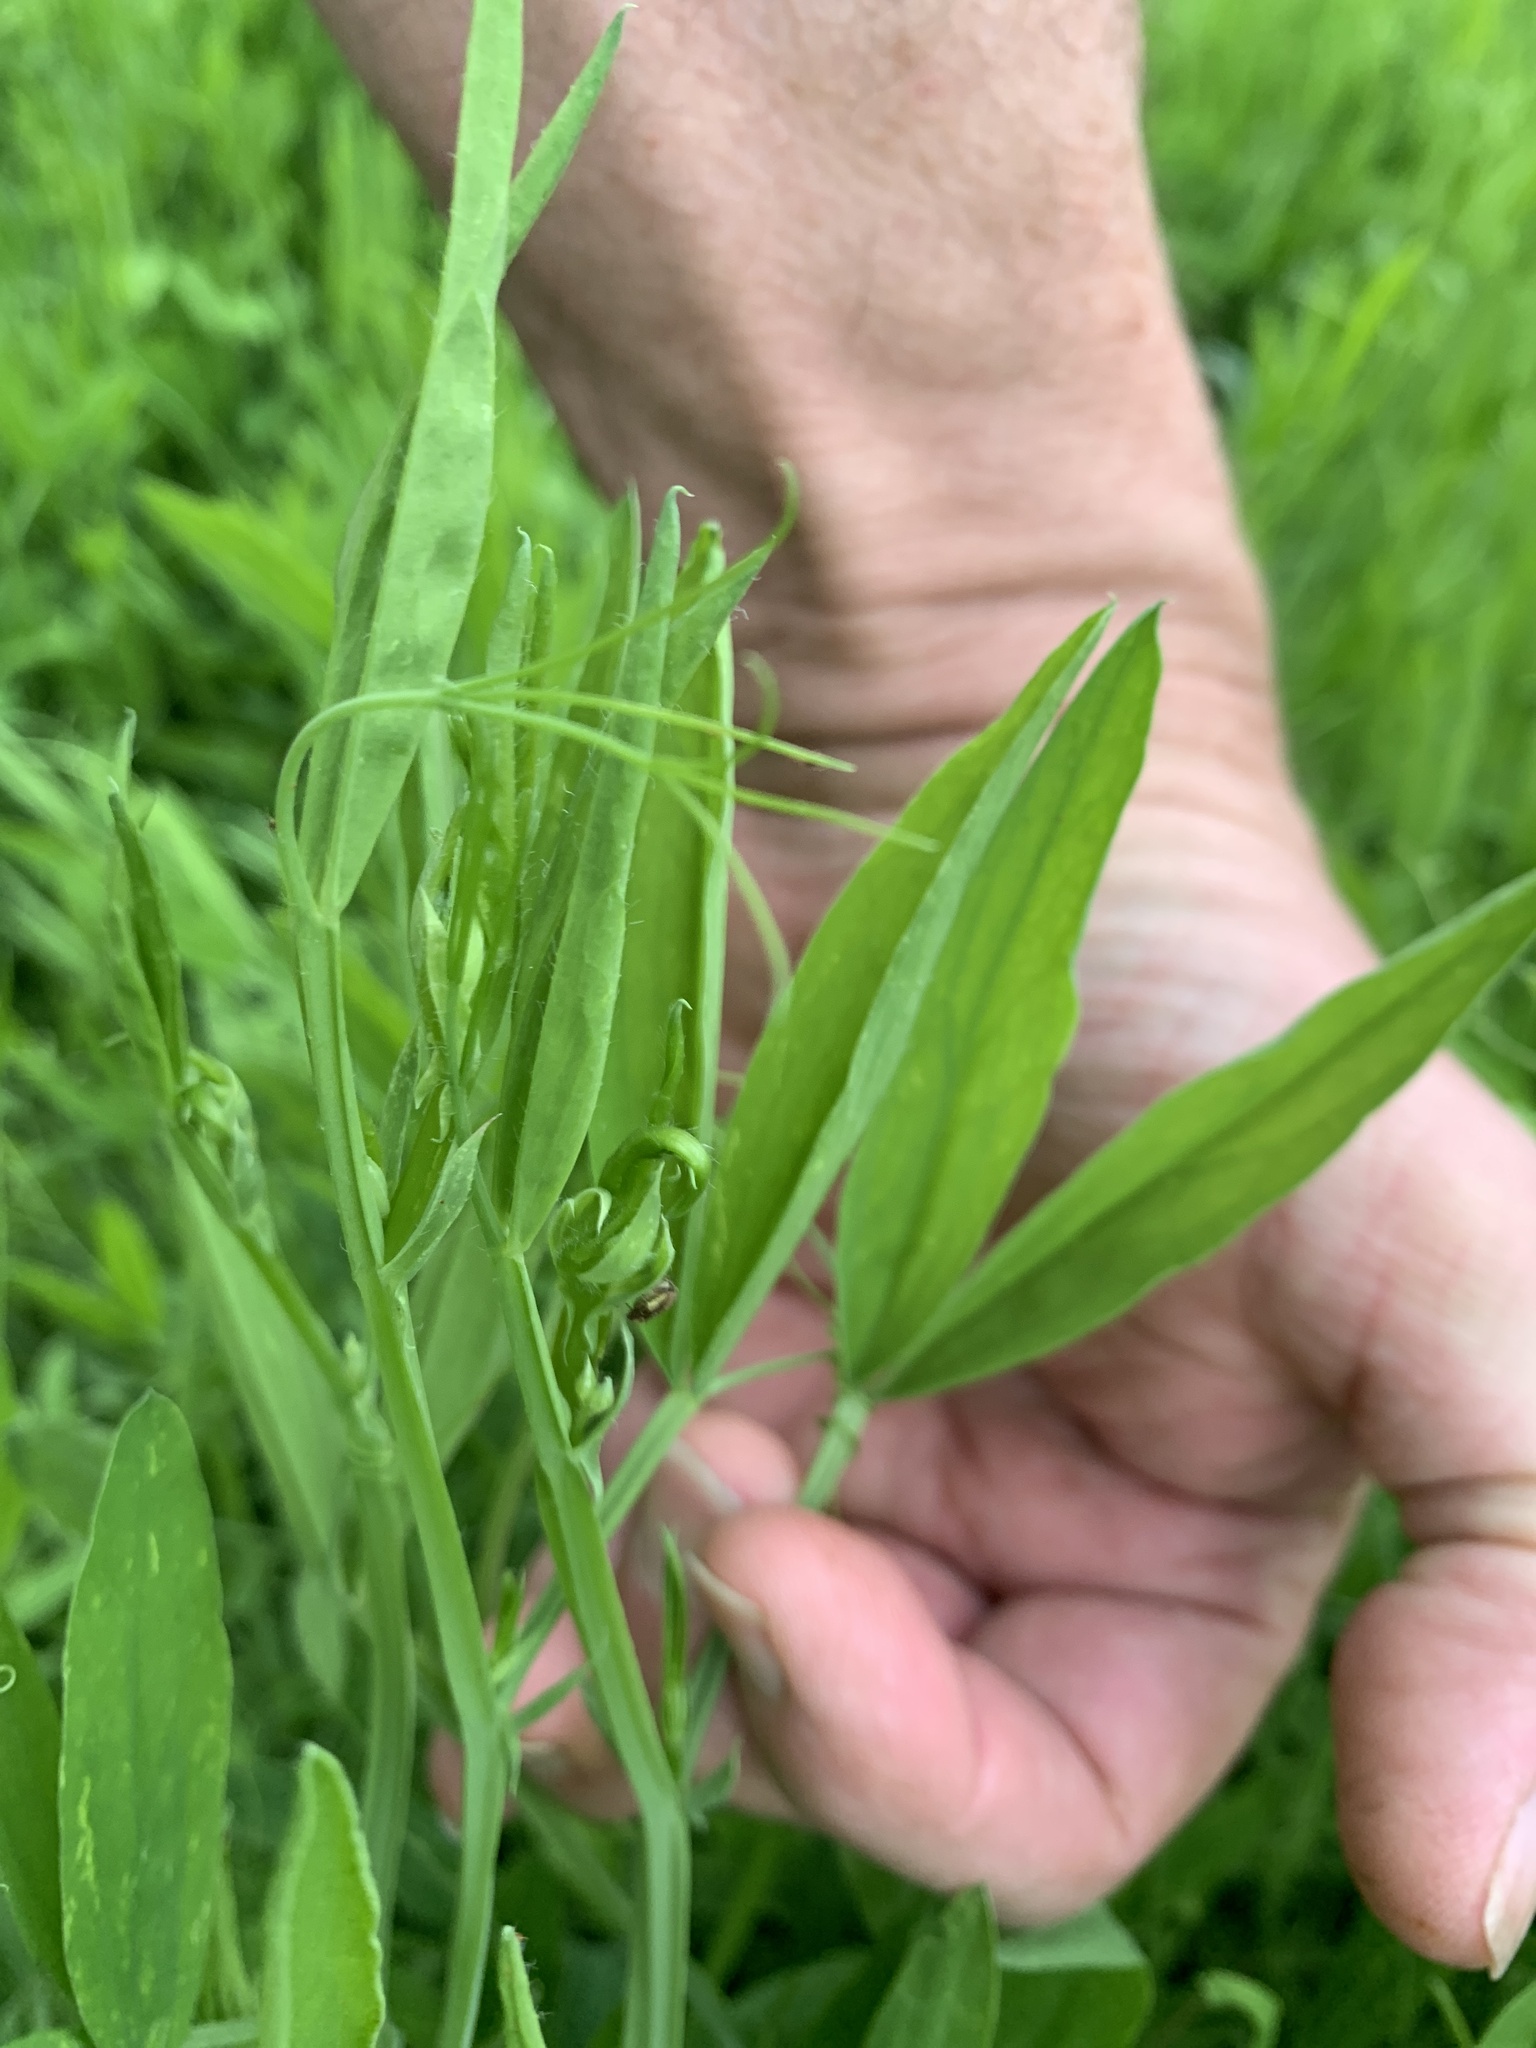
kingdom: Plantae
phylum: Tracheophyta
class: Magnoliopsida
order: Fabales
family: Fabaceae
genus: Lathyrus
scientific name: Lathyrus hirsutus
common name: Hairy vetchling
